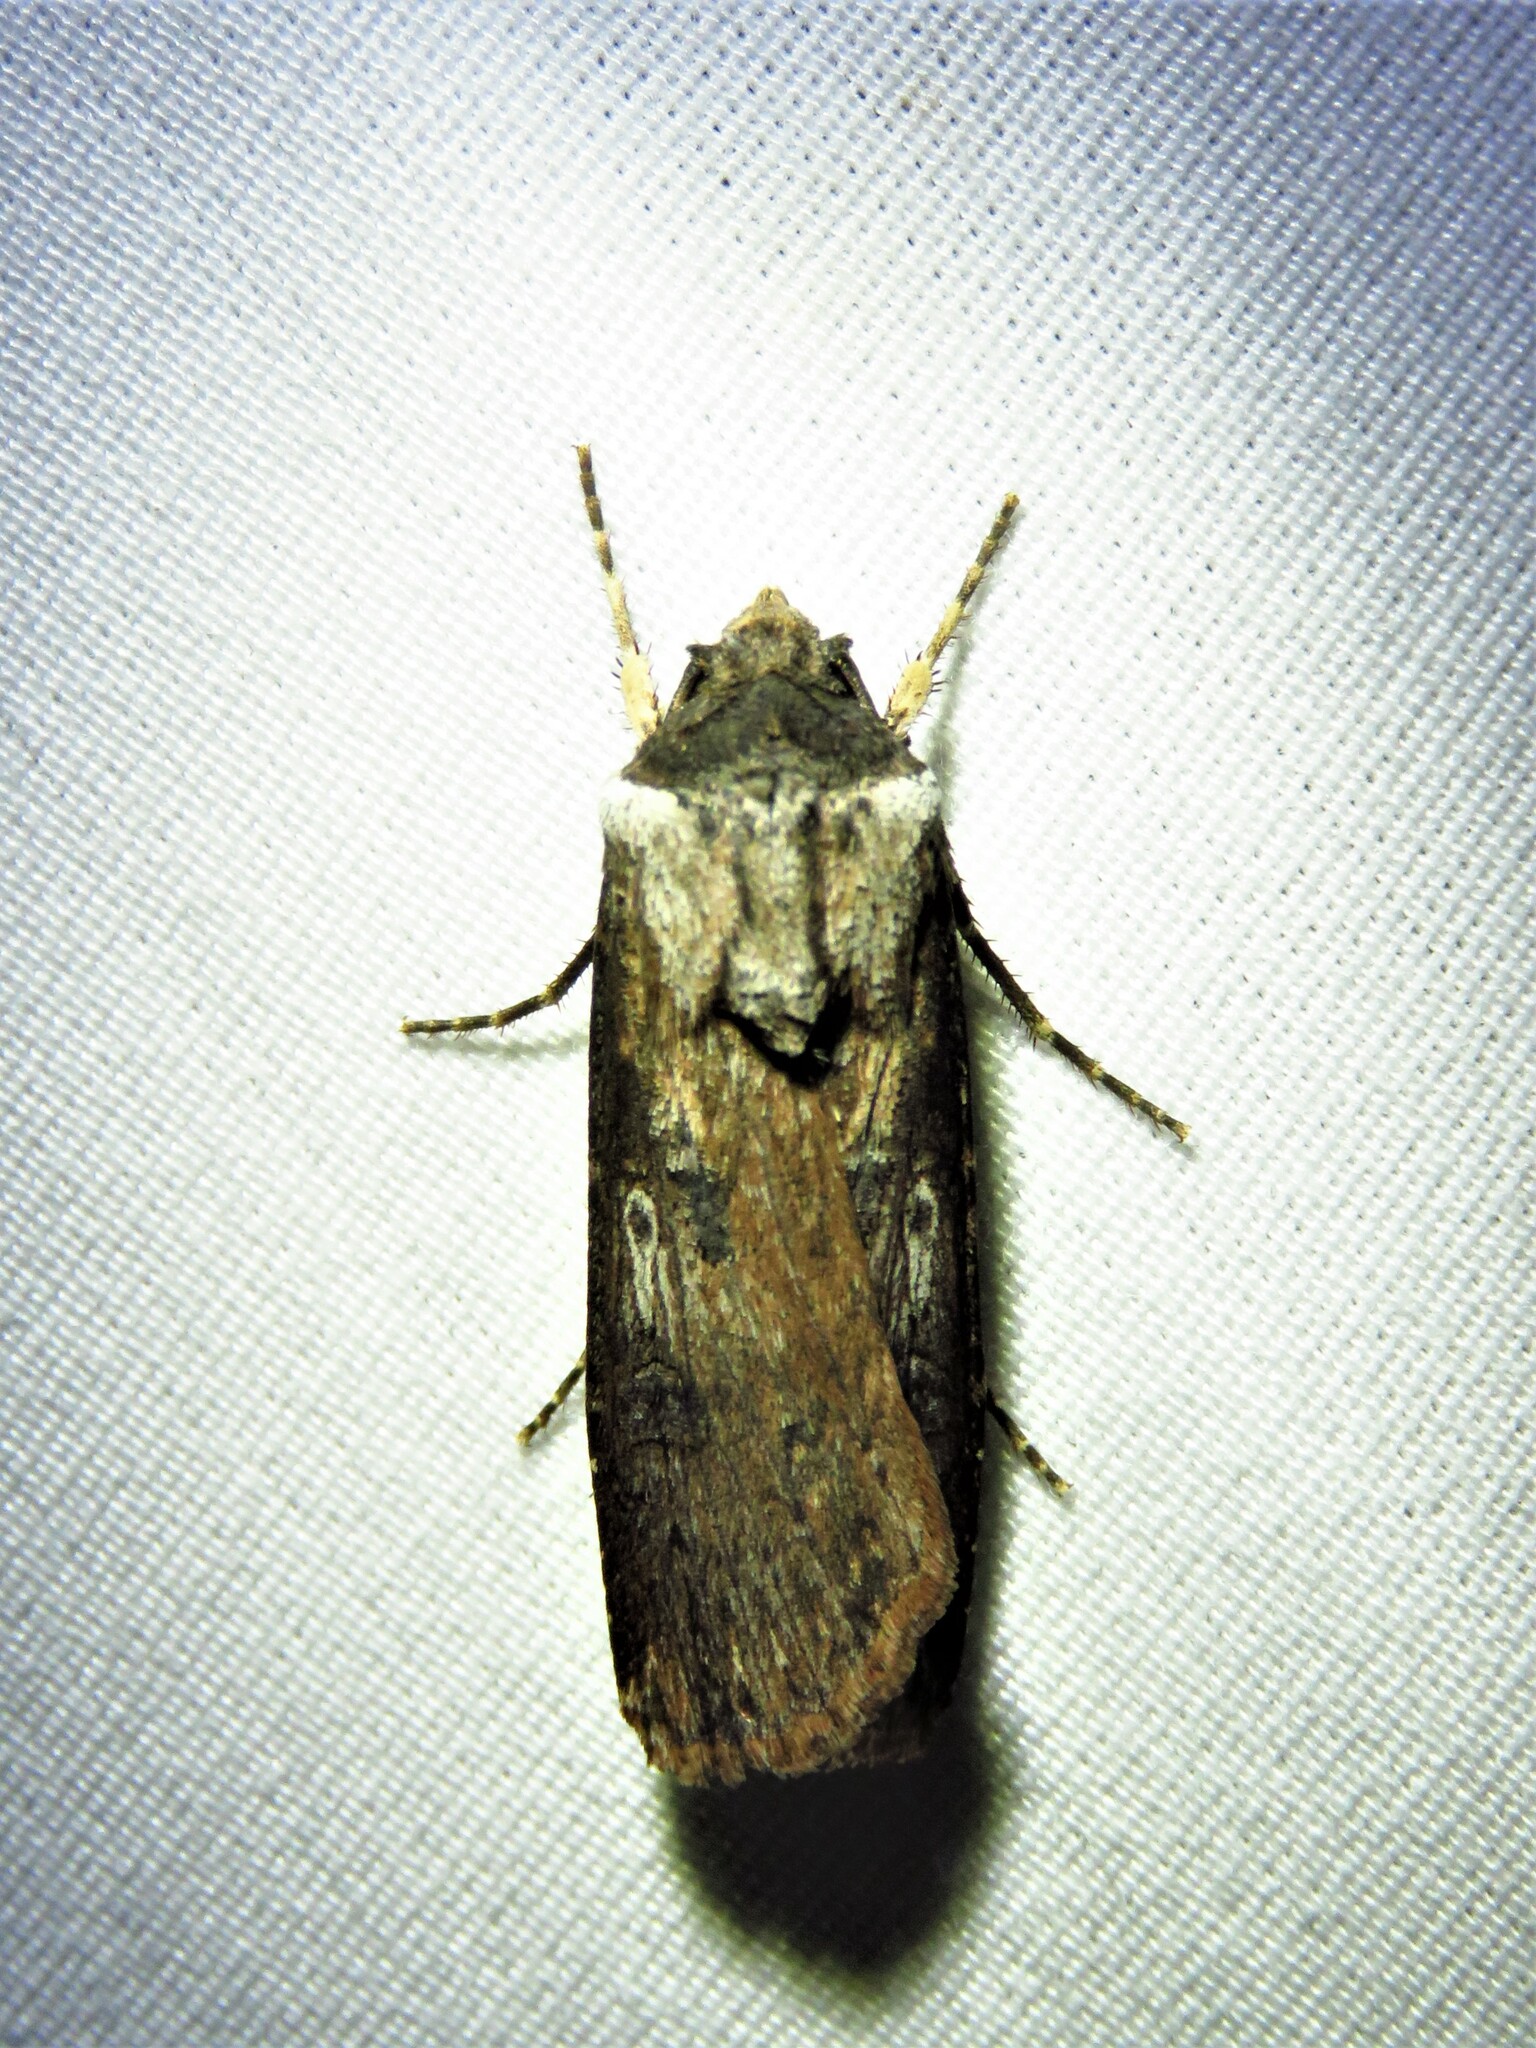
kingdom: Animalia
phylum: Arthropoda
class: Insecta
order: Lepidoptera
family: Noctuidae
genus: Agrotis
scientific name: Agrotis malefida
